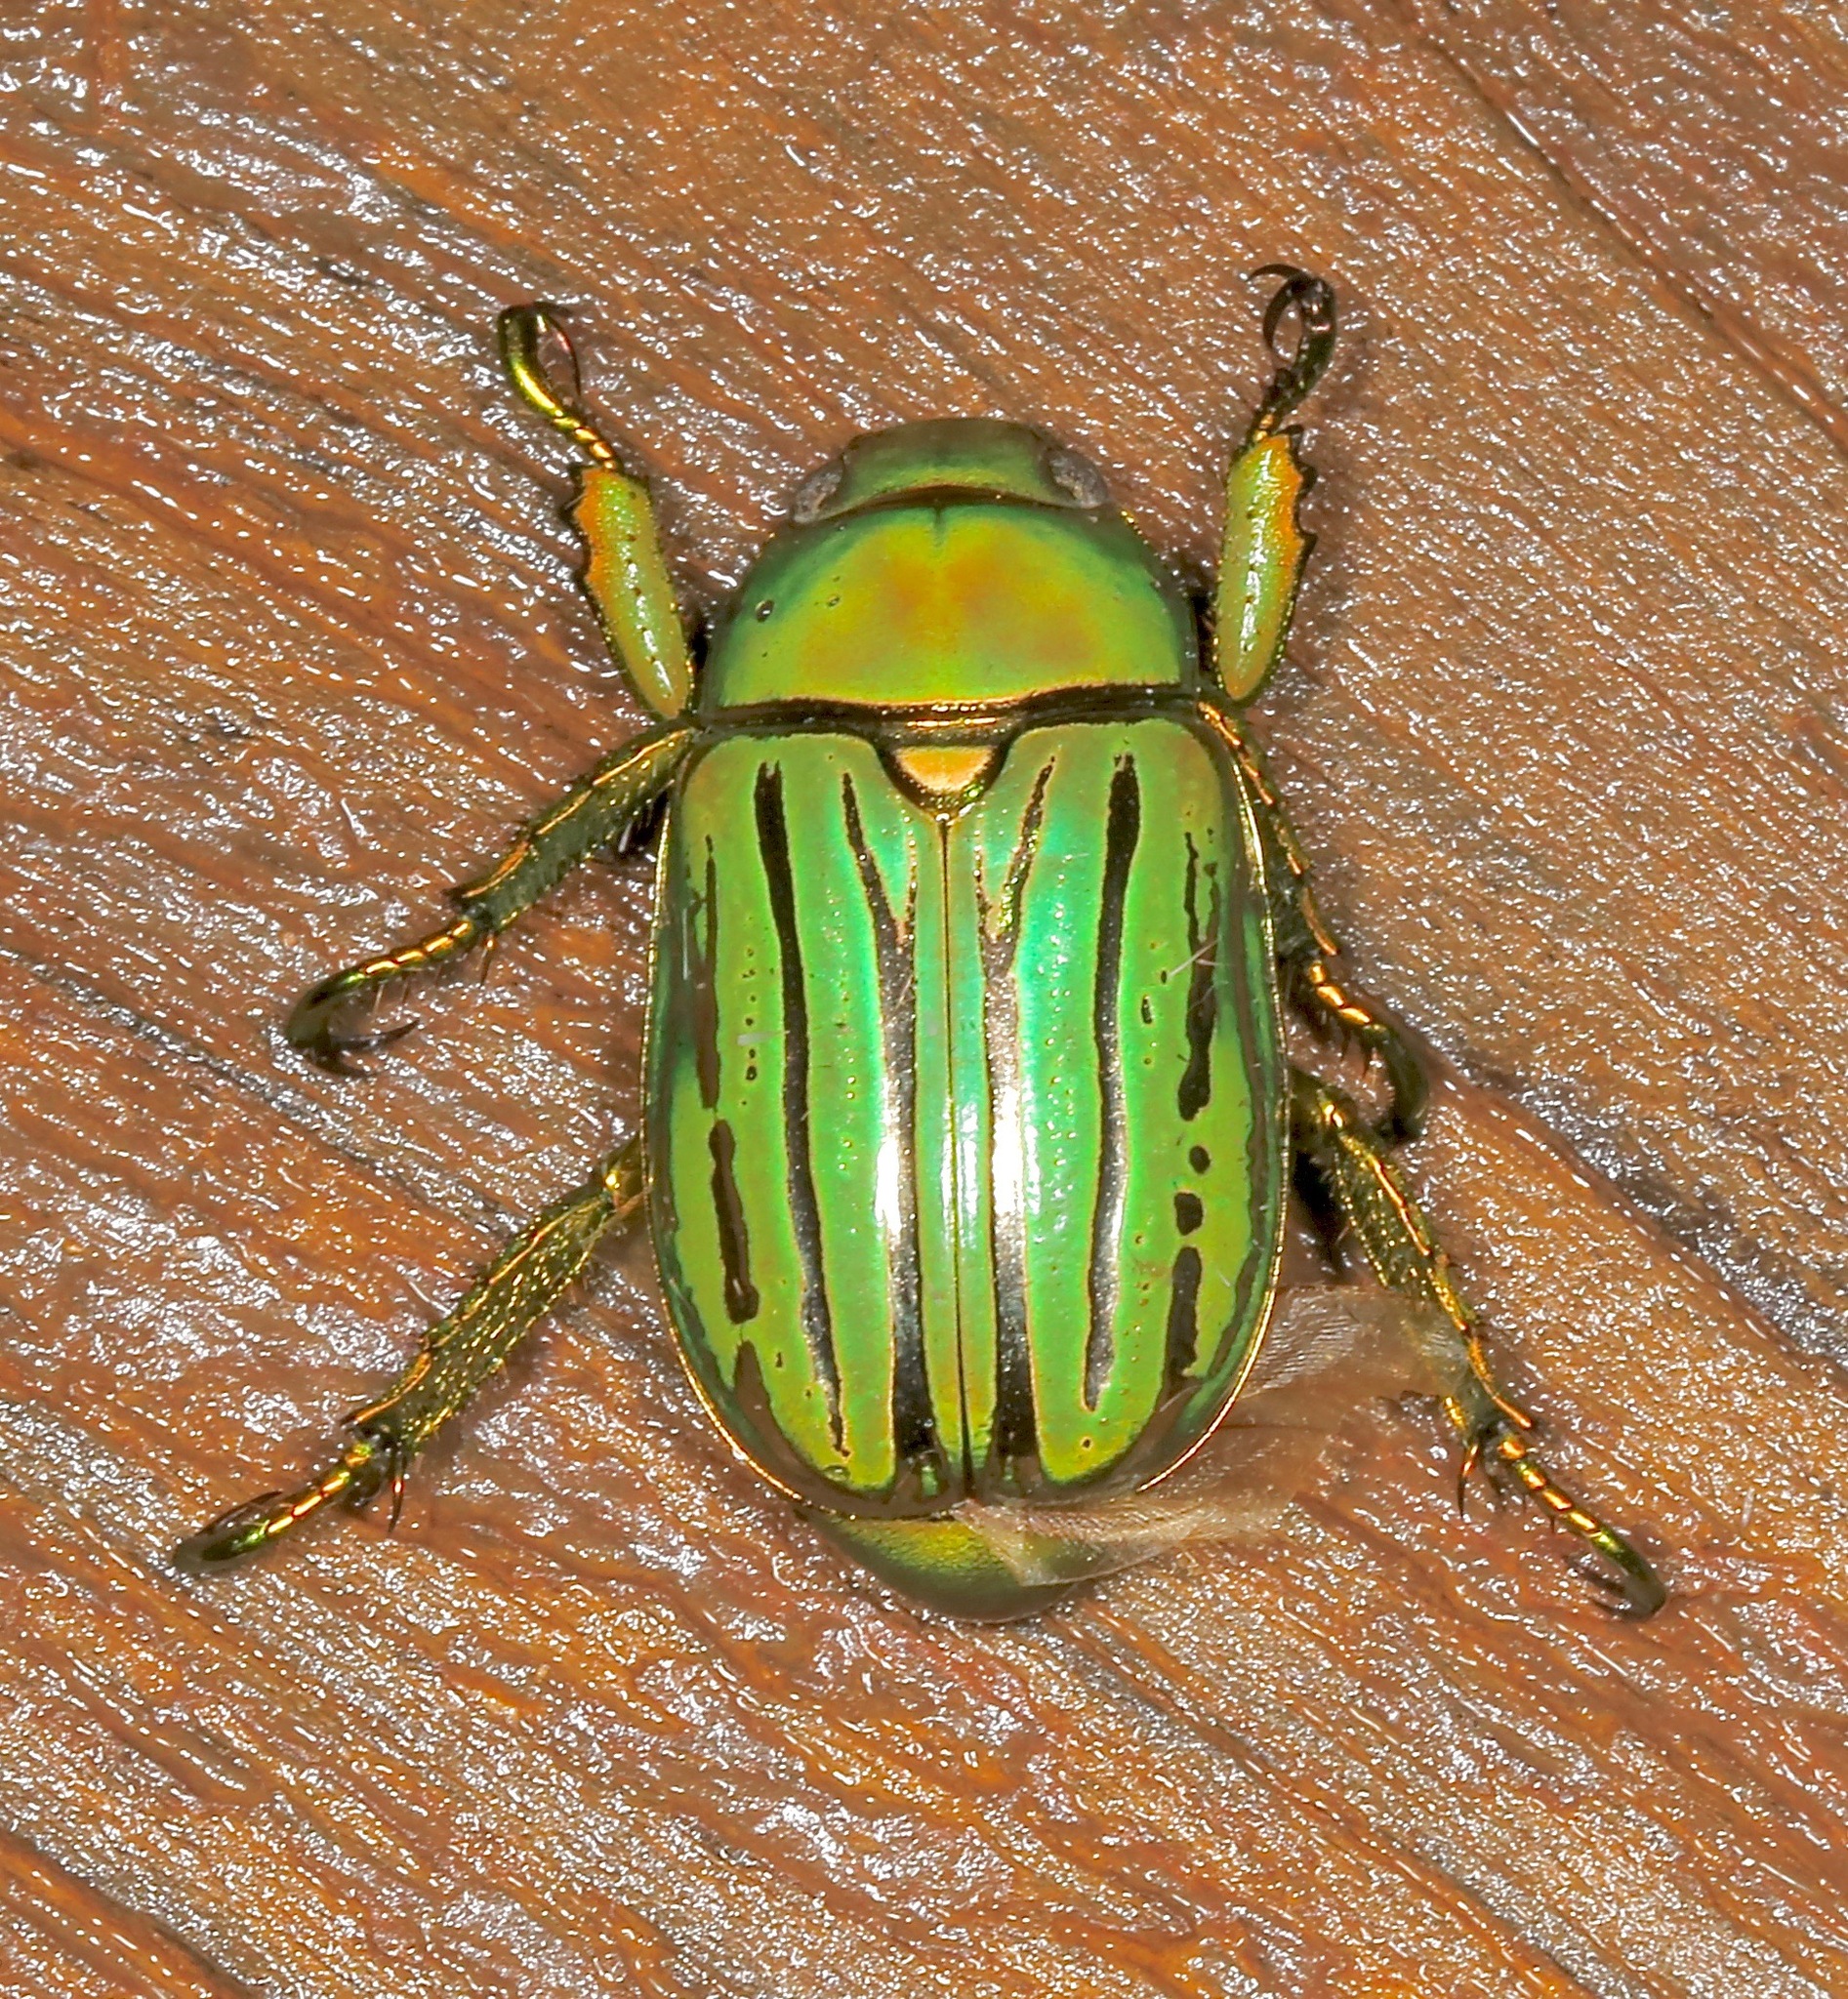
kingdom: Animalia
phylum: Arthropoda
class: Insecta
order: Coleoptera
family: Scarabaeidae
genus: Chrysina
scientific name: Chrysina gloriosa
